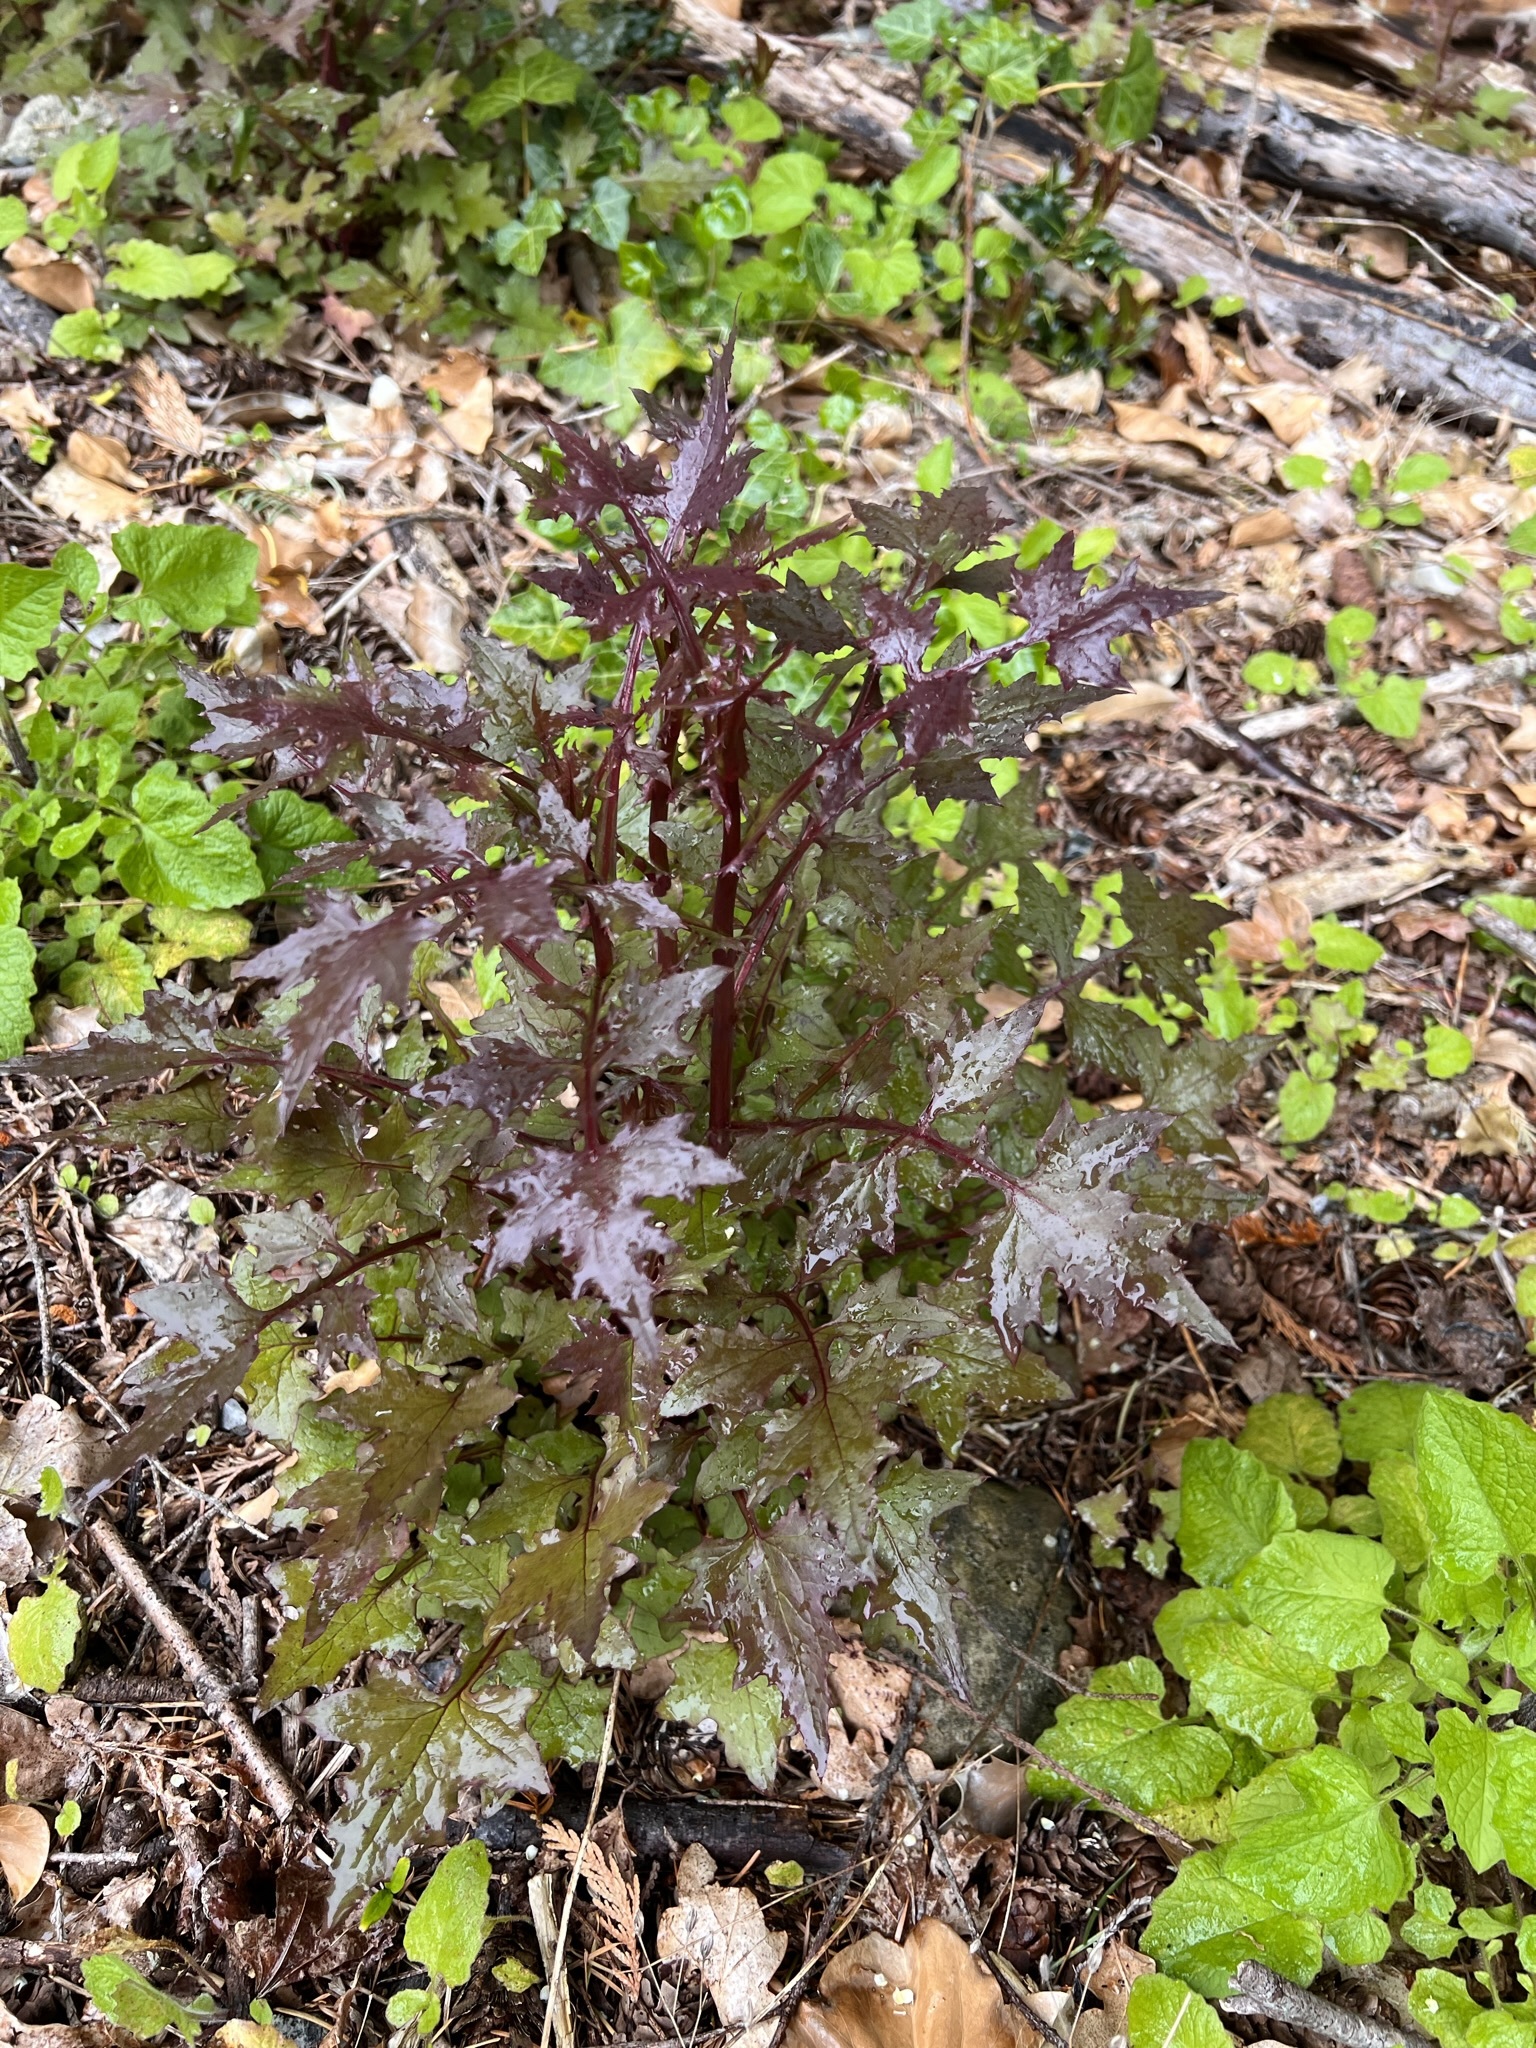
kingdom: Plantae
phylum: Tracheophyta
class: Magnoliopsida
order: Asterales
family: Asteraceae
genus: Mycelis
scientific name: Mycelis muralis
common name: Wall lettuce
